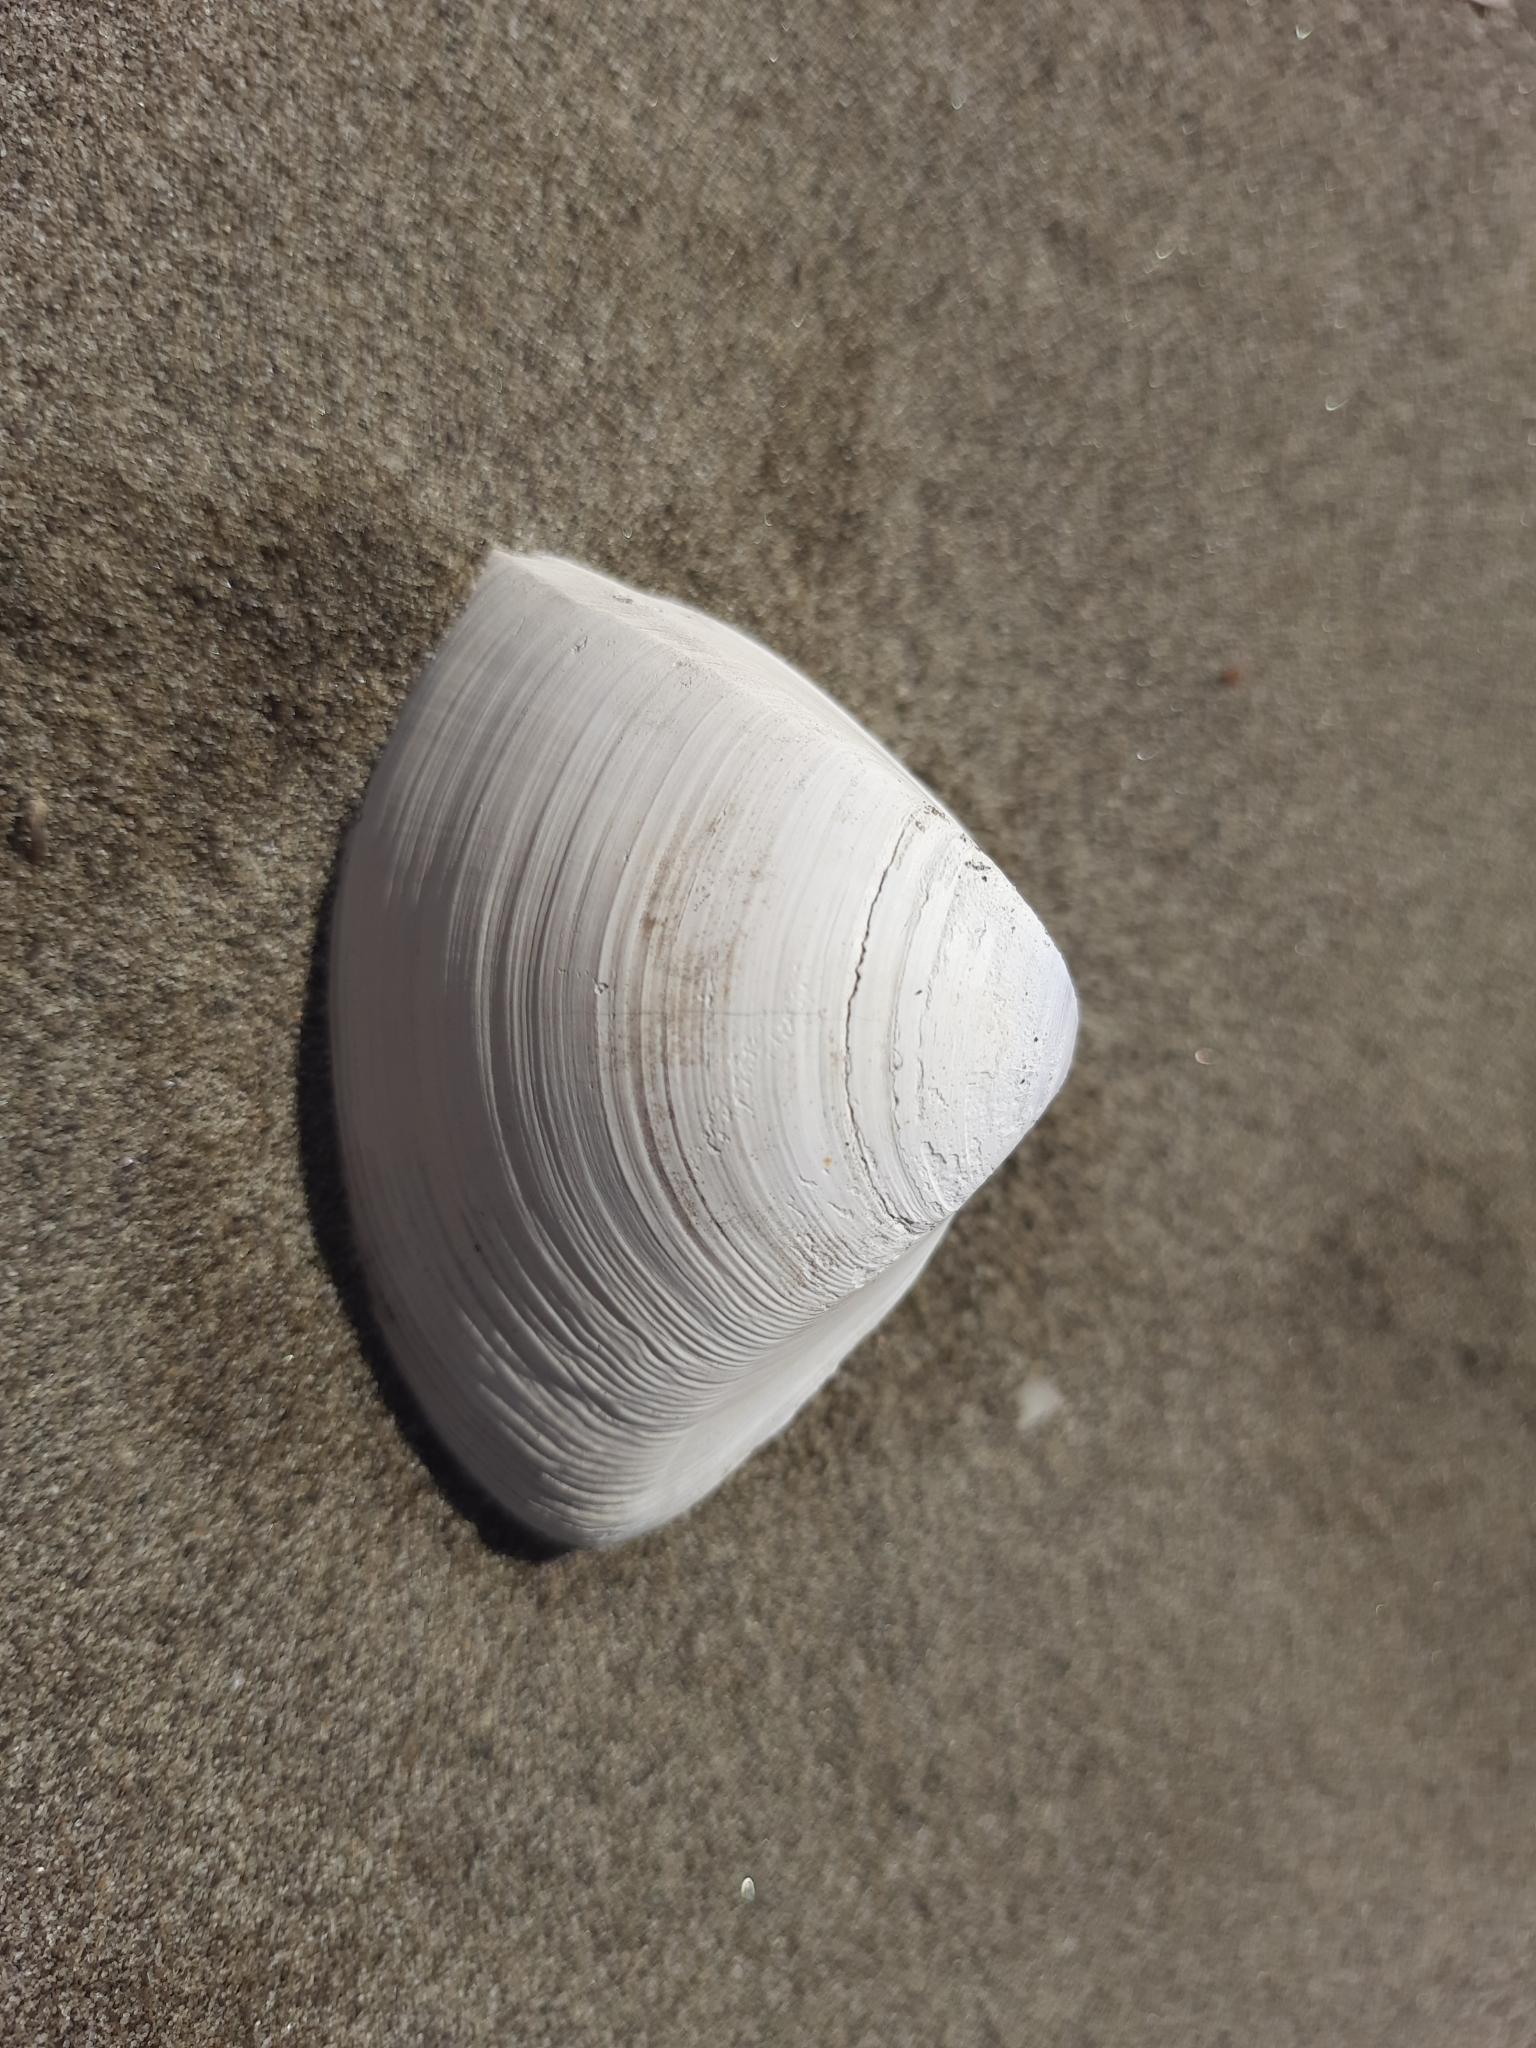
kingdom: Animalia
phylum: Mollusca
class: Bivalvia
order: Venerida
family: Mactridae
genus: Crassula
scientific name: Crassula aequilatera
